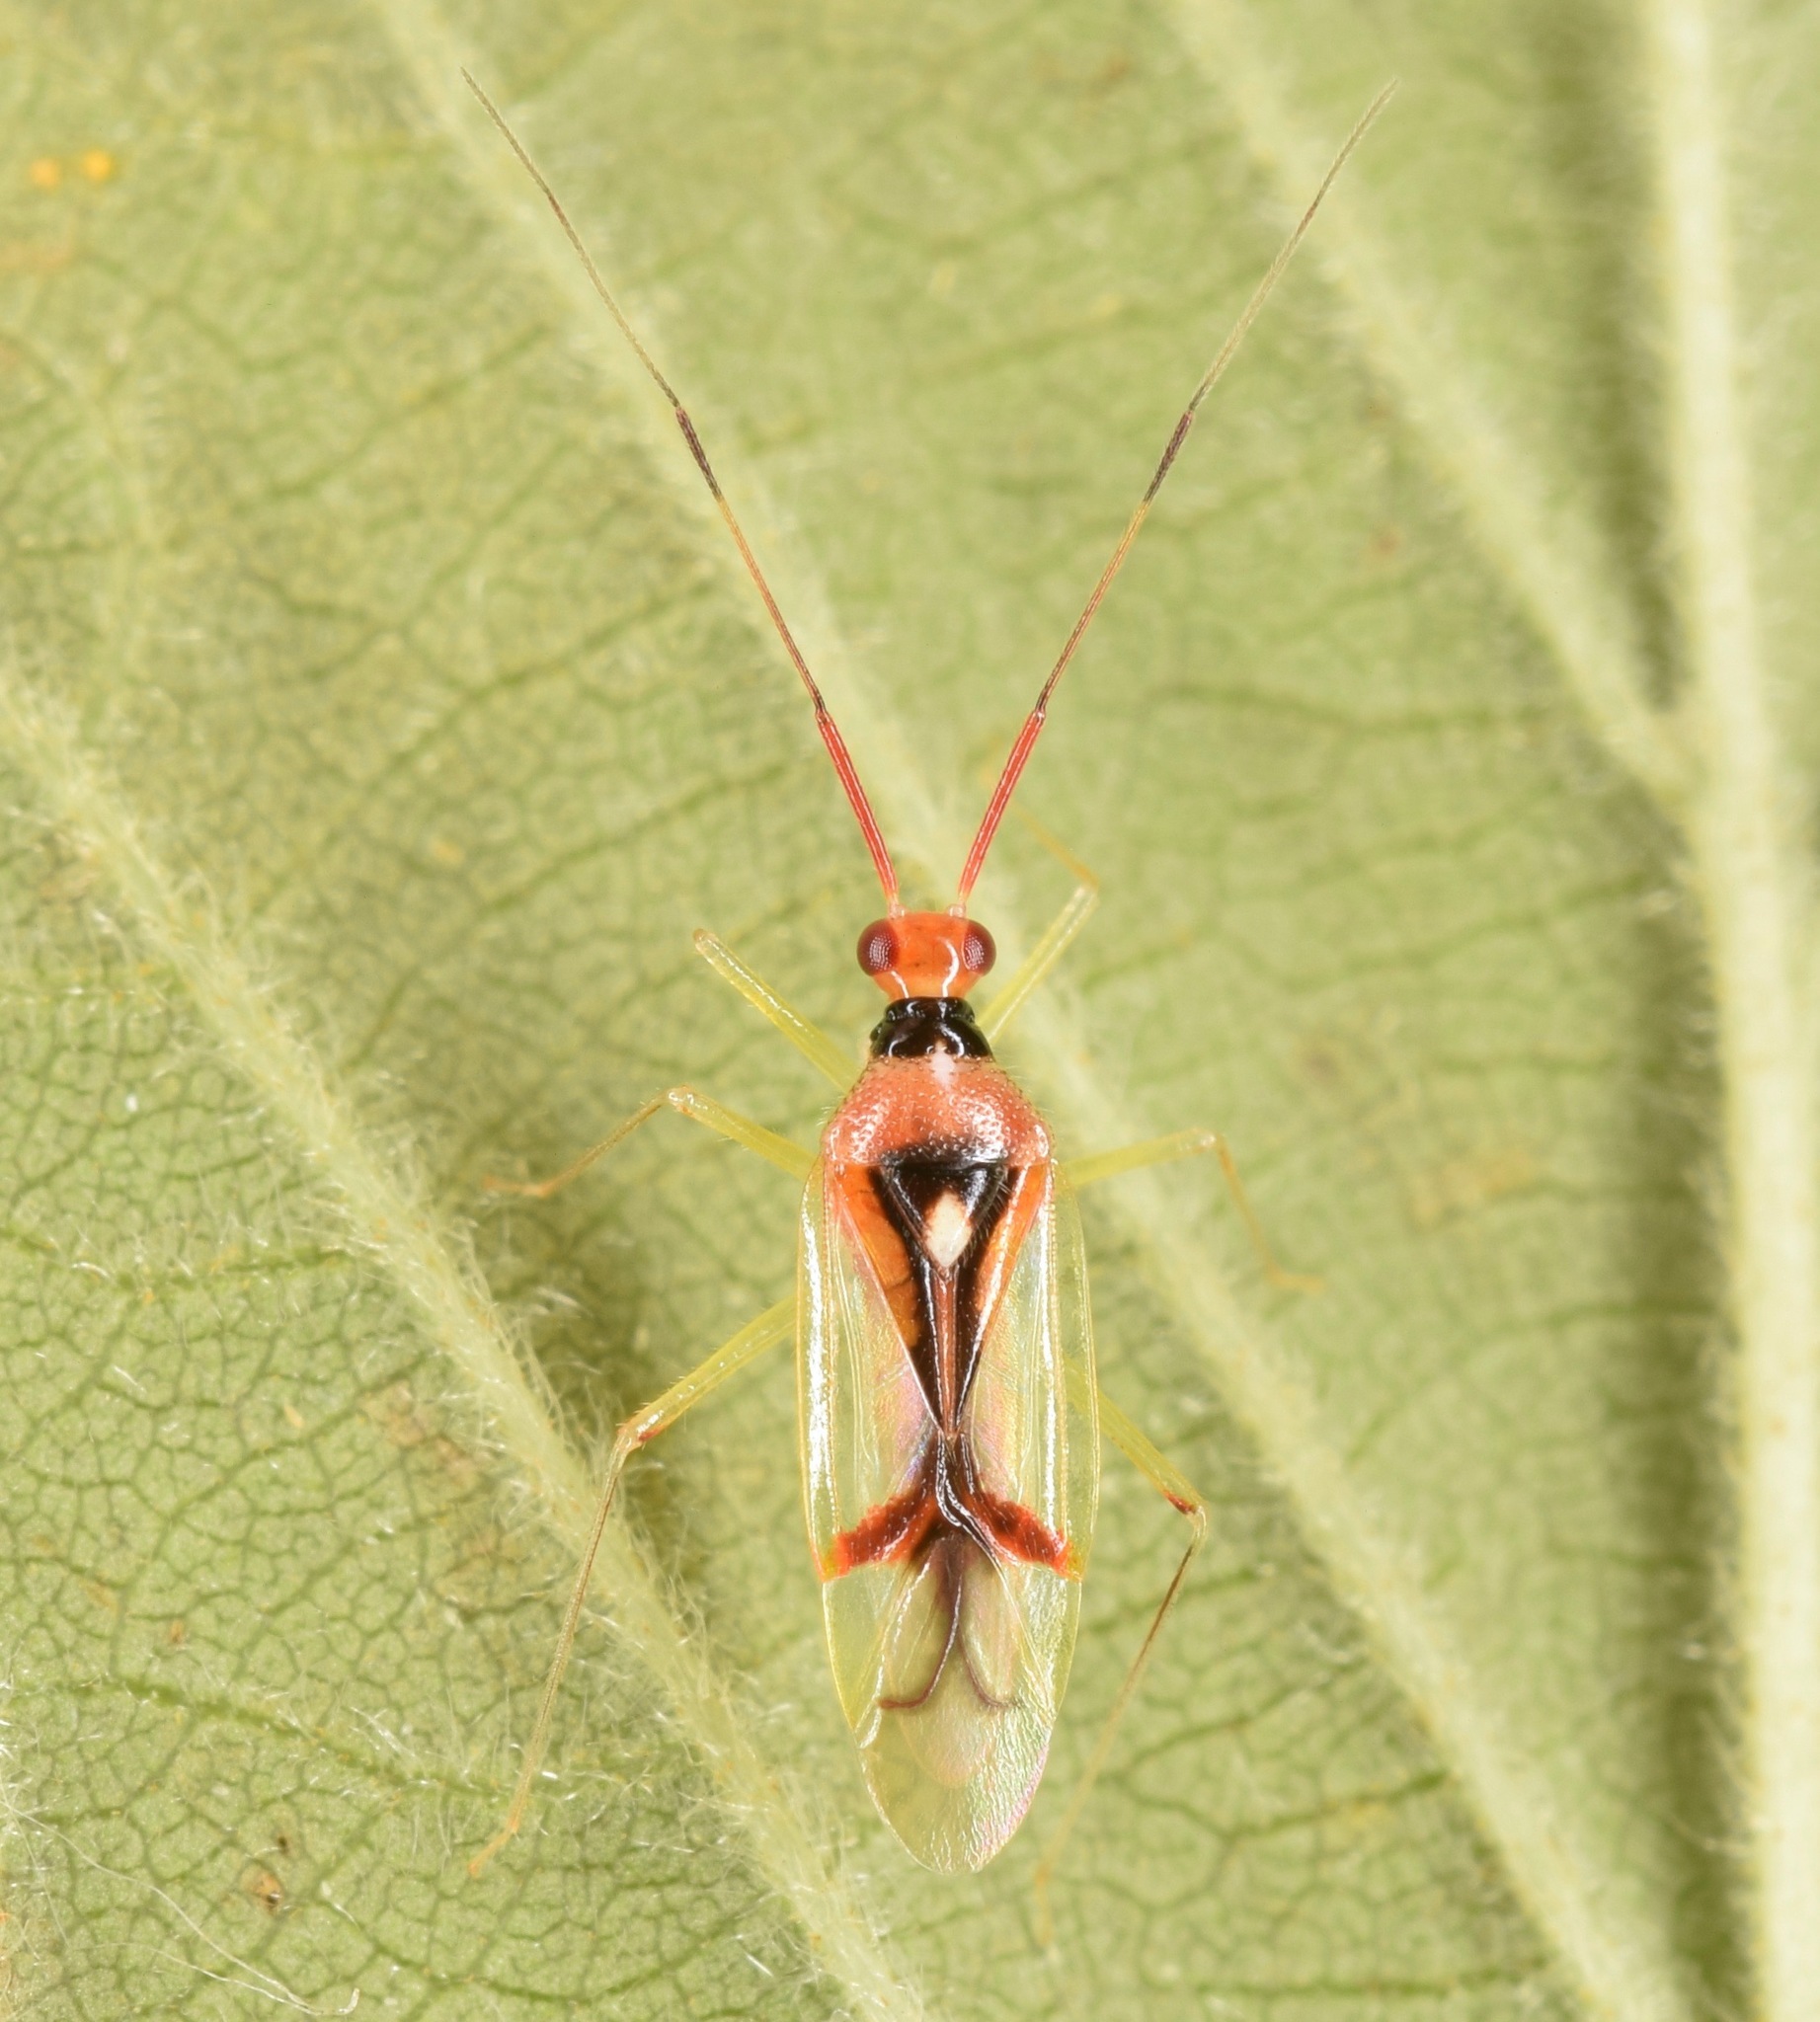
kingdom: Animalia
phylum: Arthropoda
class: Insecta
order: Hemiptera
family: Miridae
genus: Hyaliodes
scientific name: Hyaliodes harti
